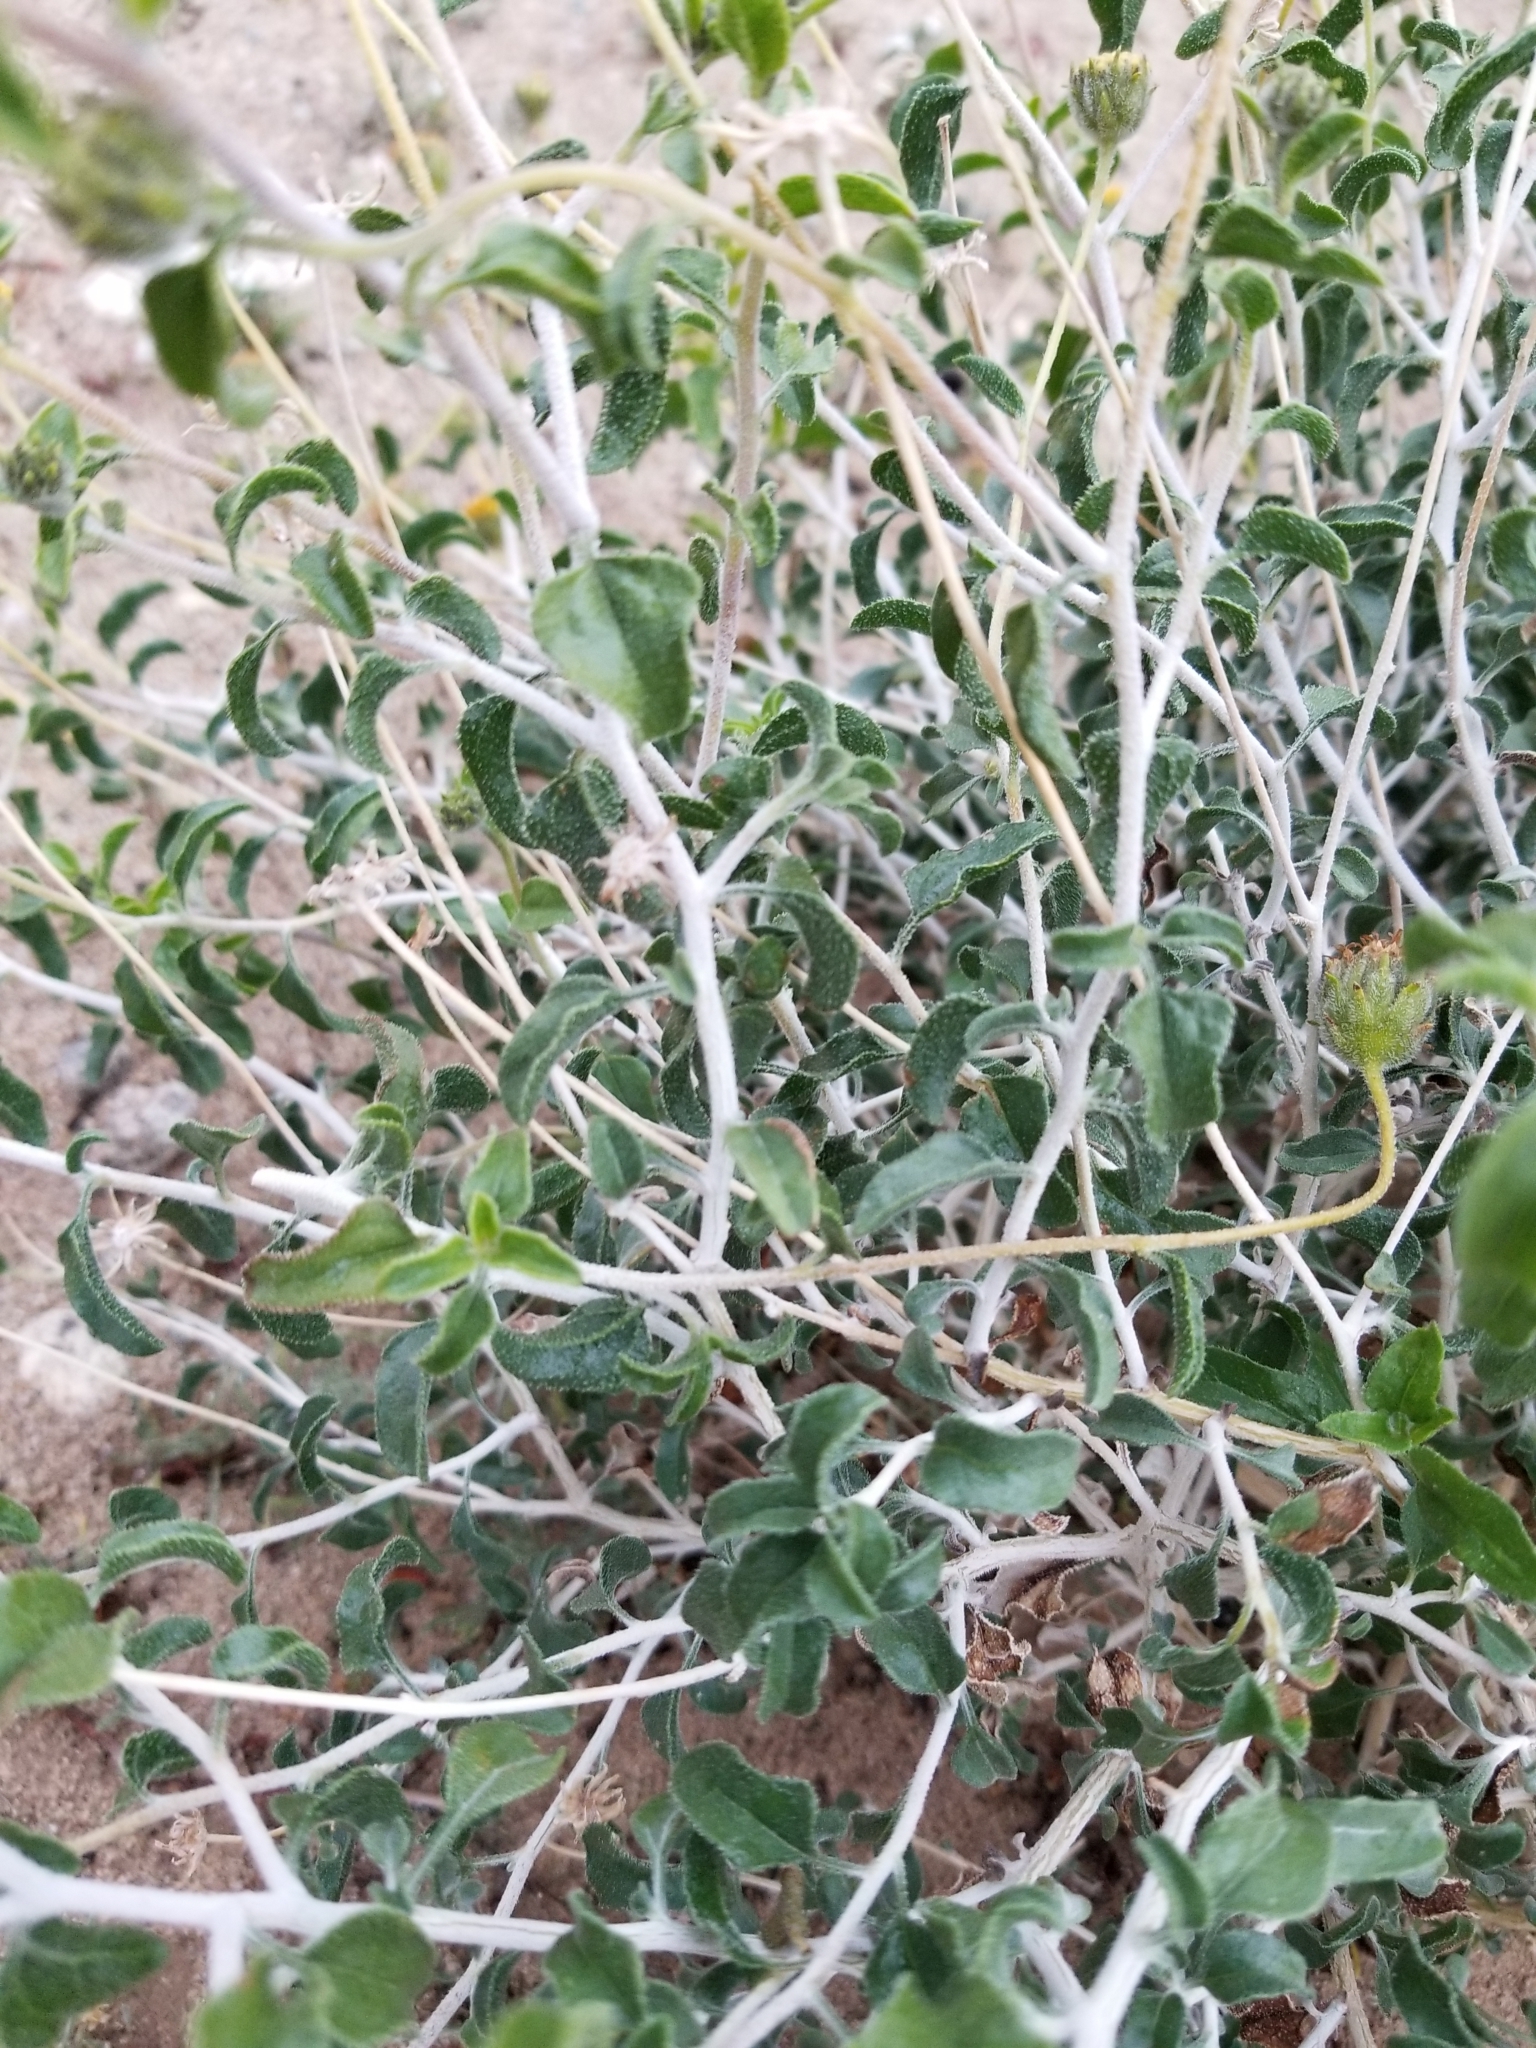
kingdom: Plantae
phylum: Tracheophyta
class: Magnoliopsida
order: Asterales
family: Asteraceae
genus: Encelia
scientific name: Encelia frutescens
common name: Bush encelia
